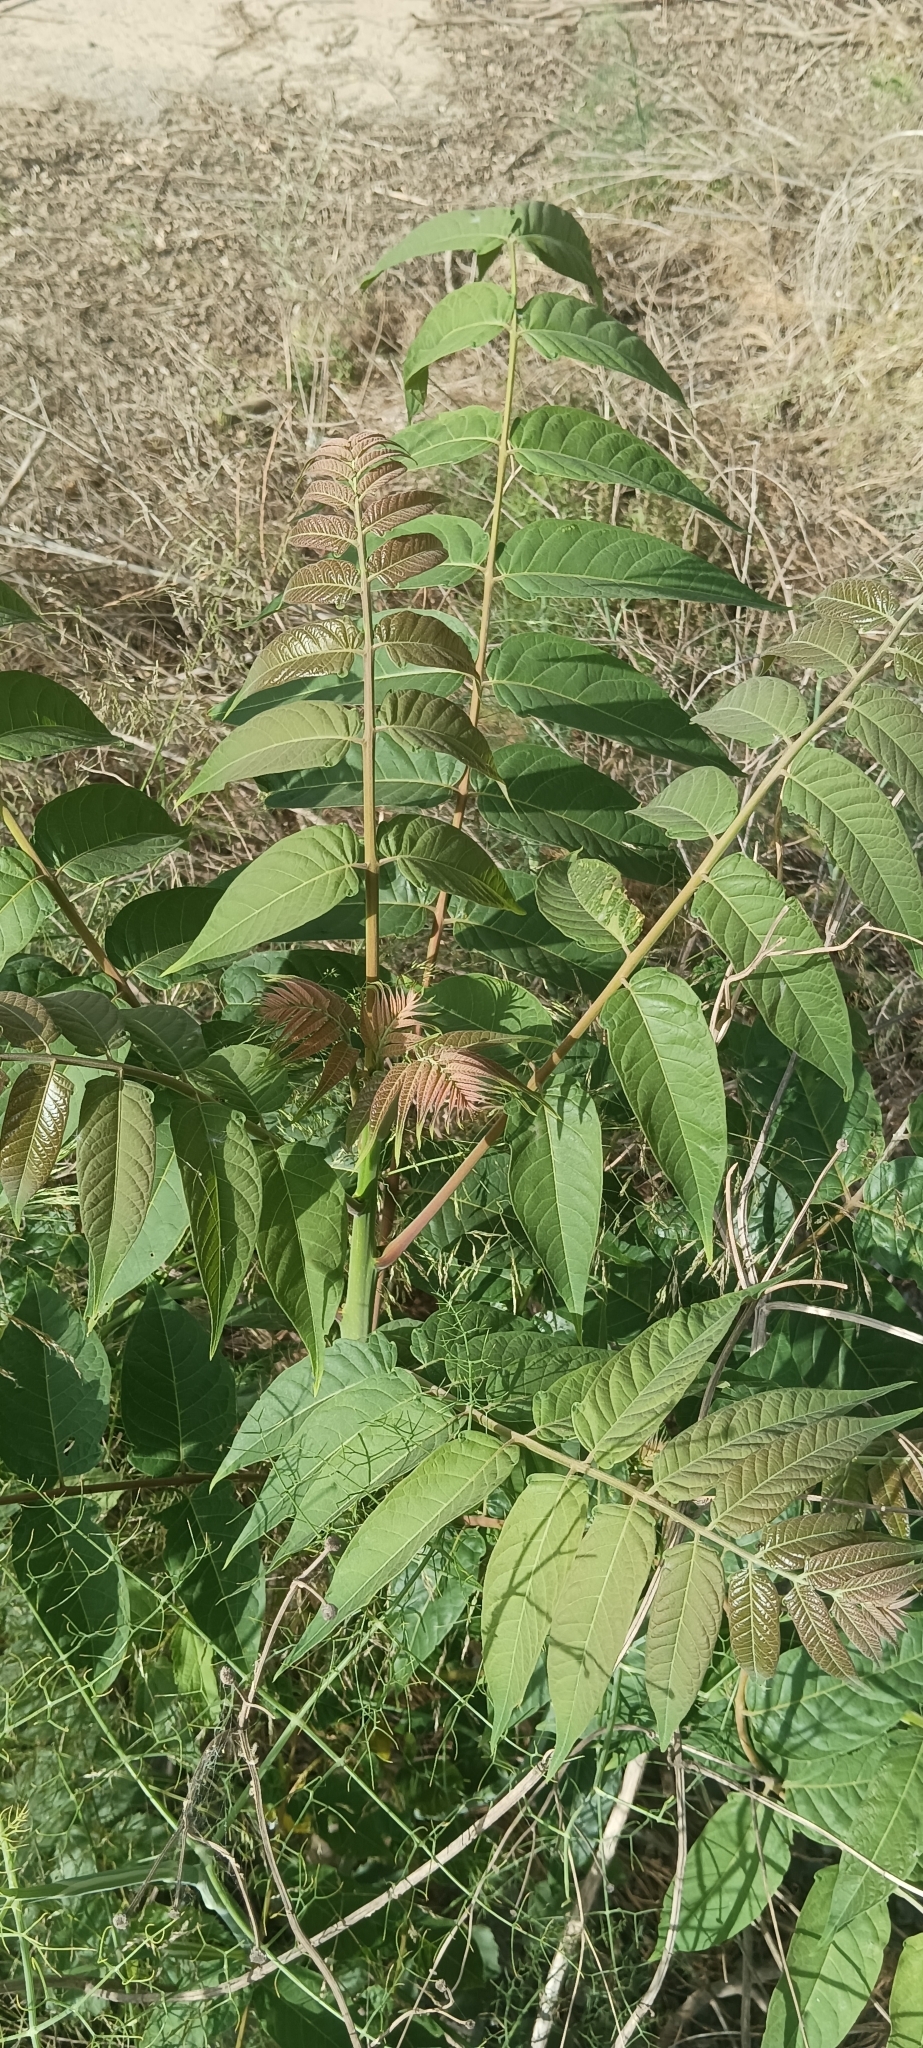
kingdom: Plantae
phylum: Tracheophyta
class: Magnoliopsida
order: Sapindales
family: Simaroubaceae
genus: Ailanthus
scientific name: Ailanthus altissima
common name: Tree-of-heaven
